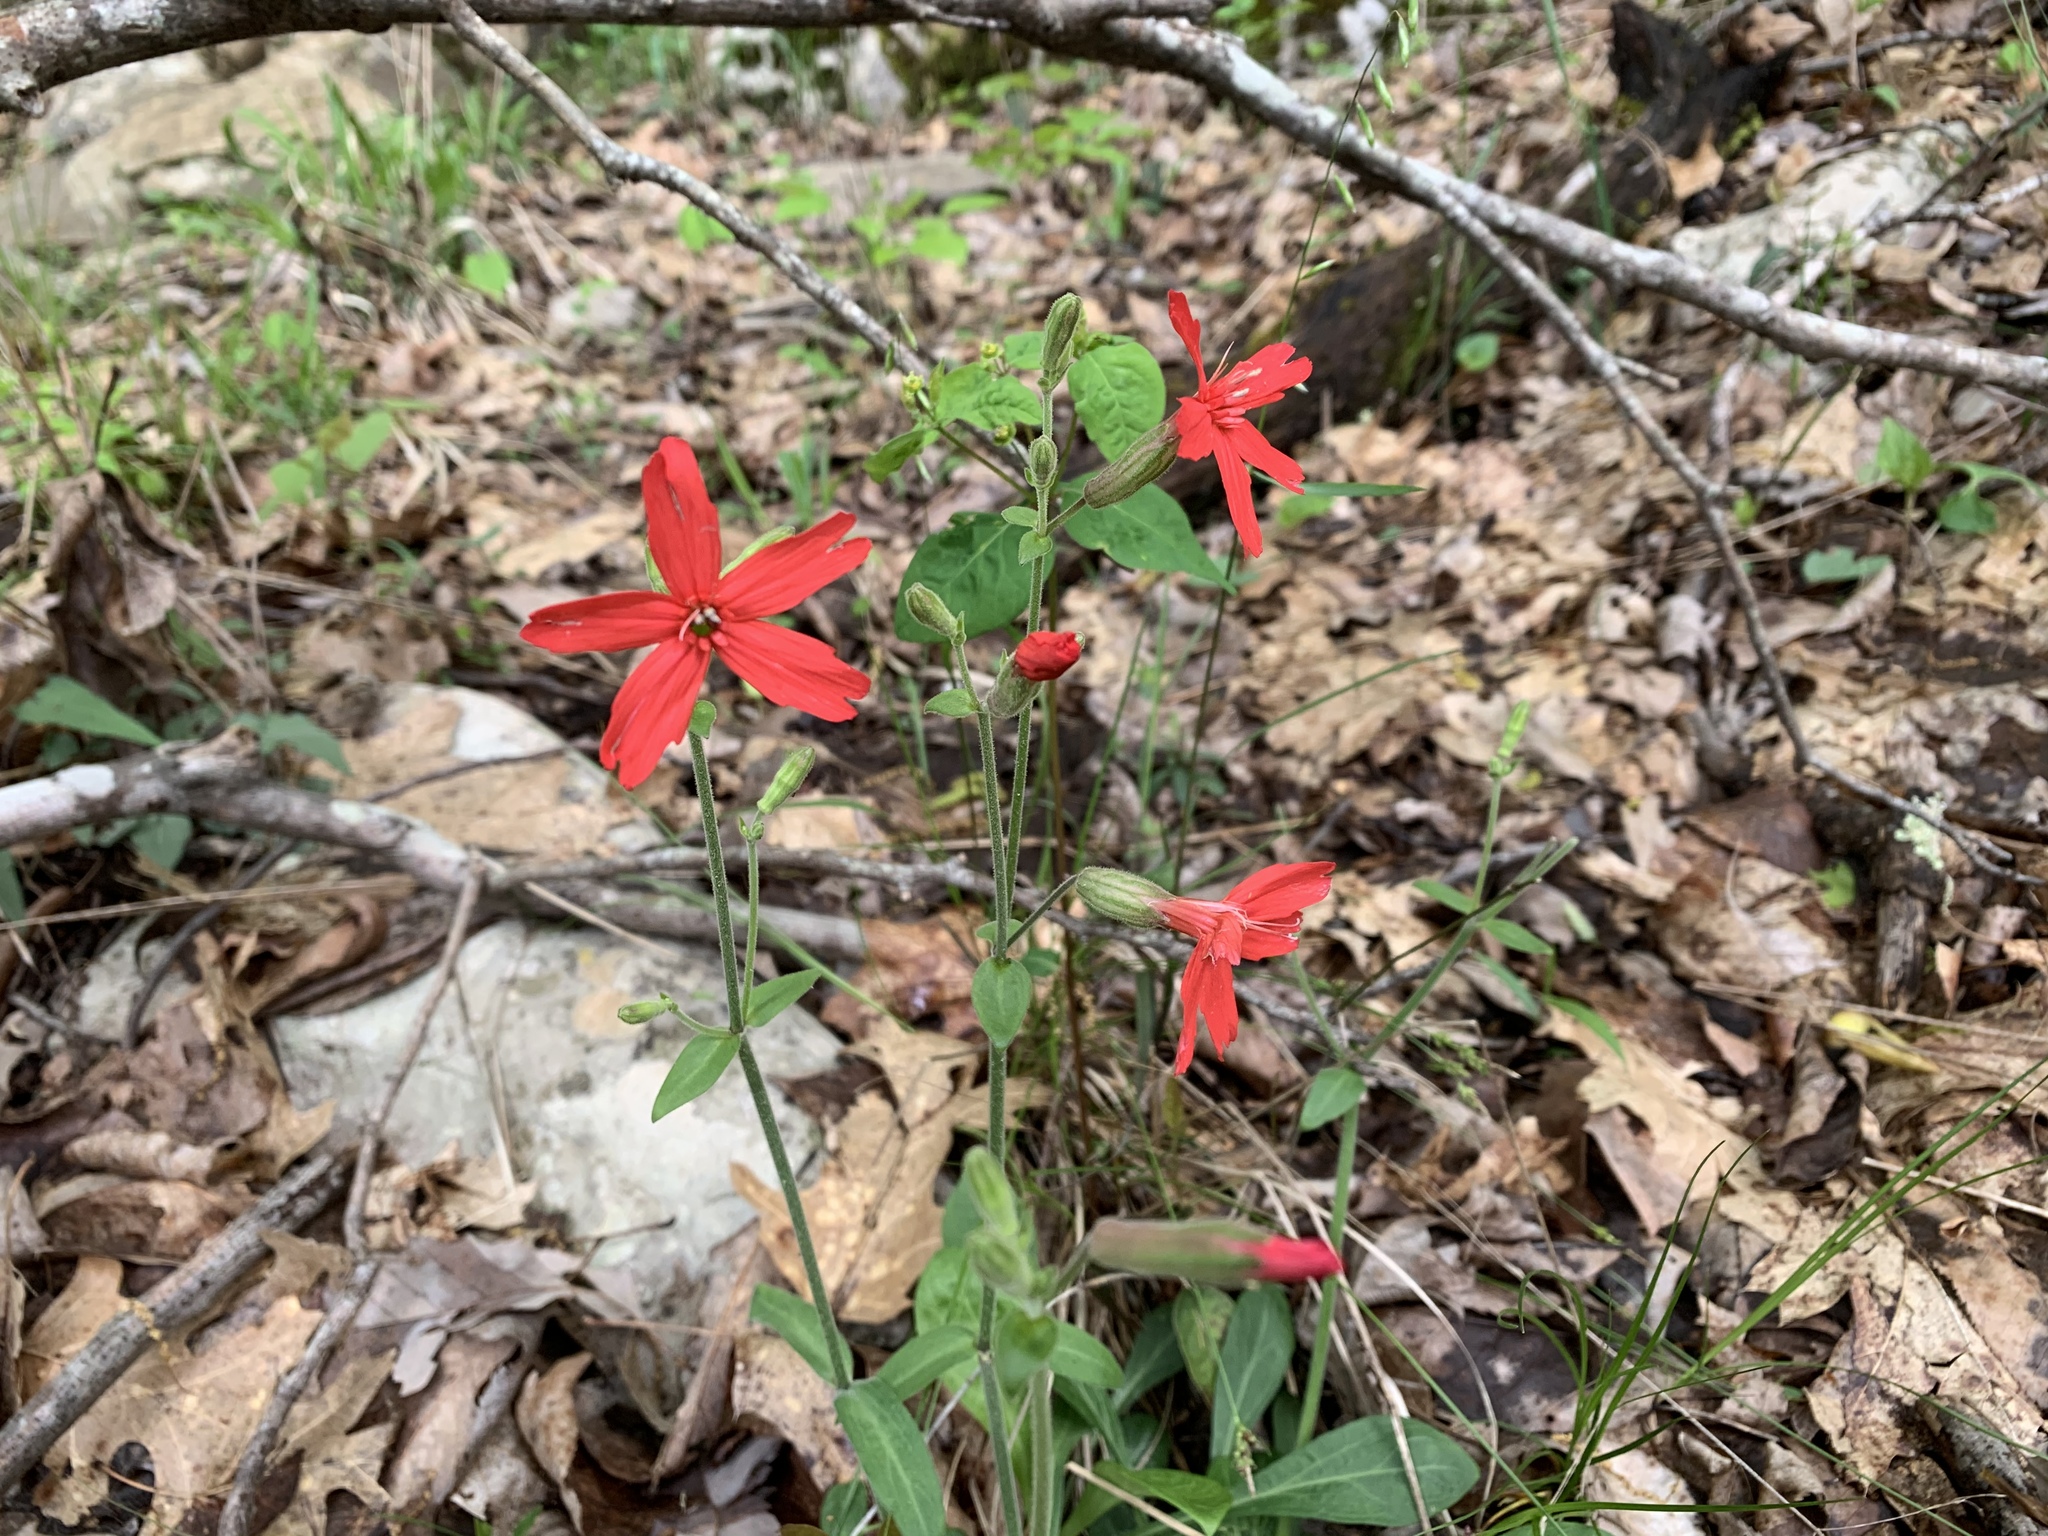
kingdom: Plantae
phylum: Tracheophyta
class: Magnoliopsida
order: Caryophyllales
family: Caryophyllaceae
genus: Silene
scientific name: Silene virginica
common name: Fire-pink
